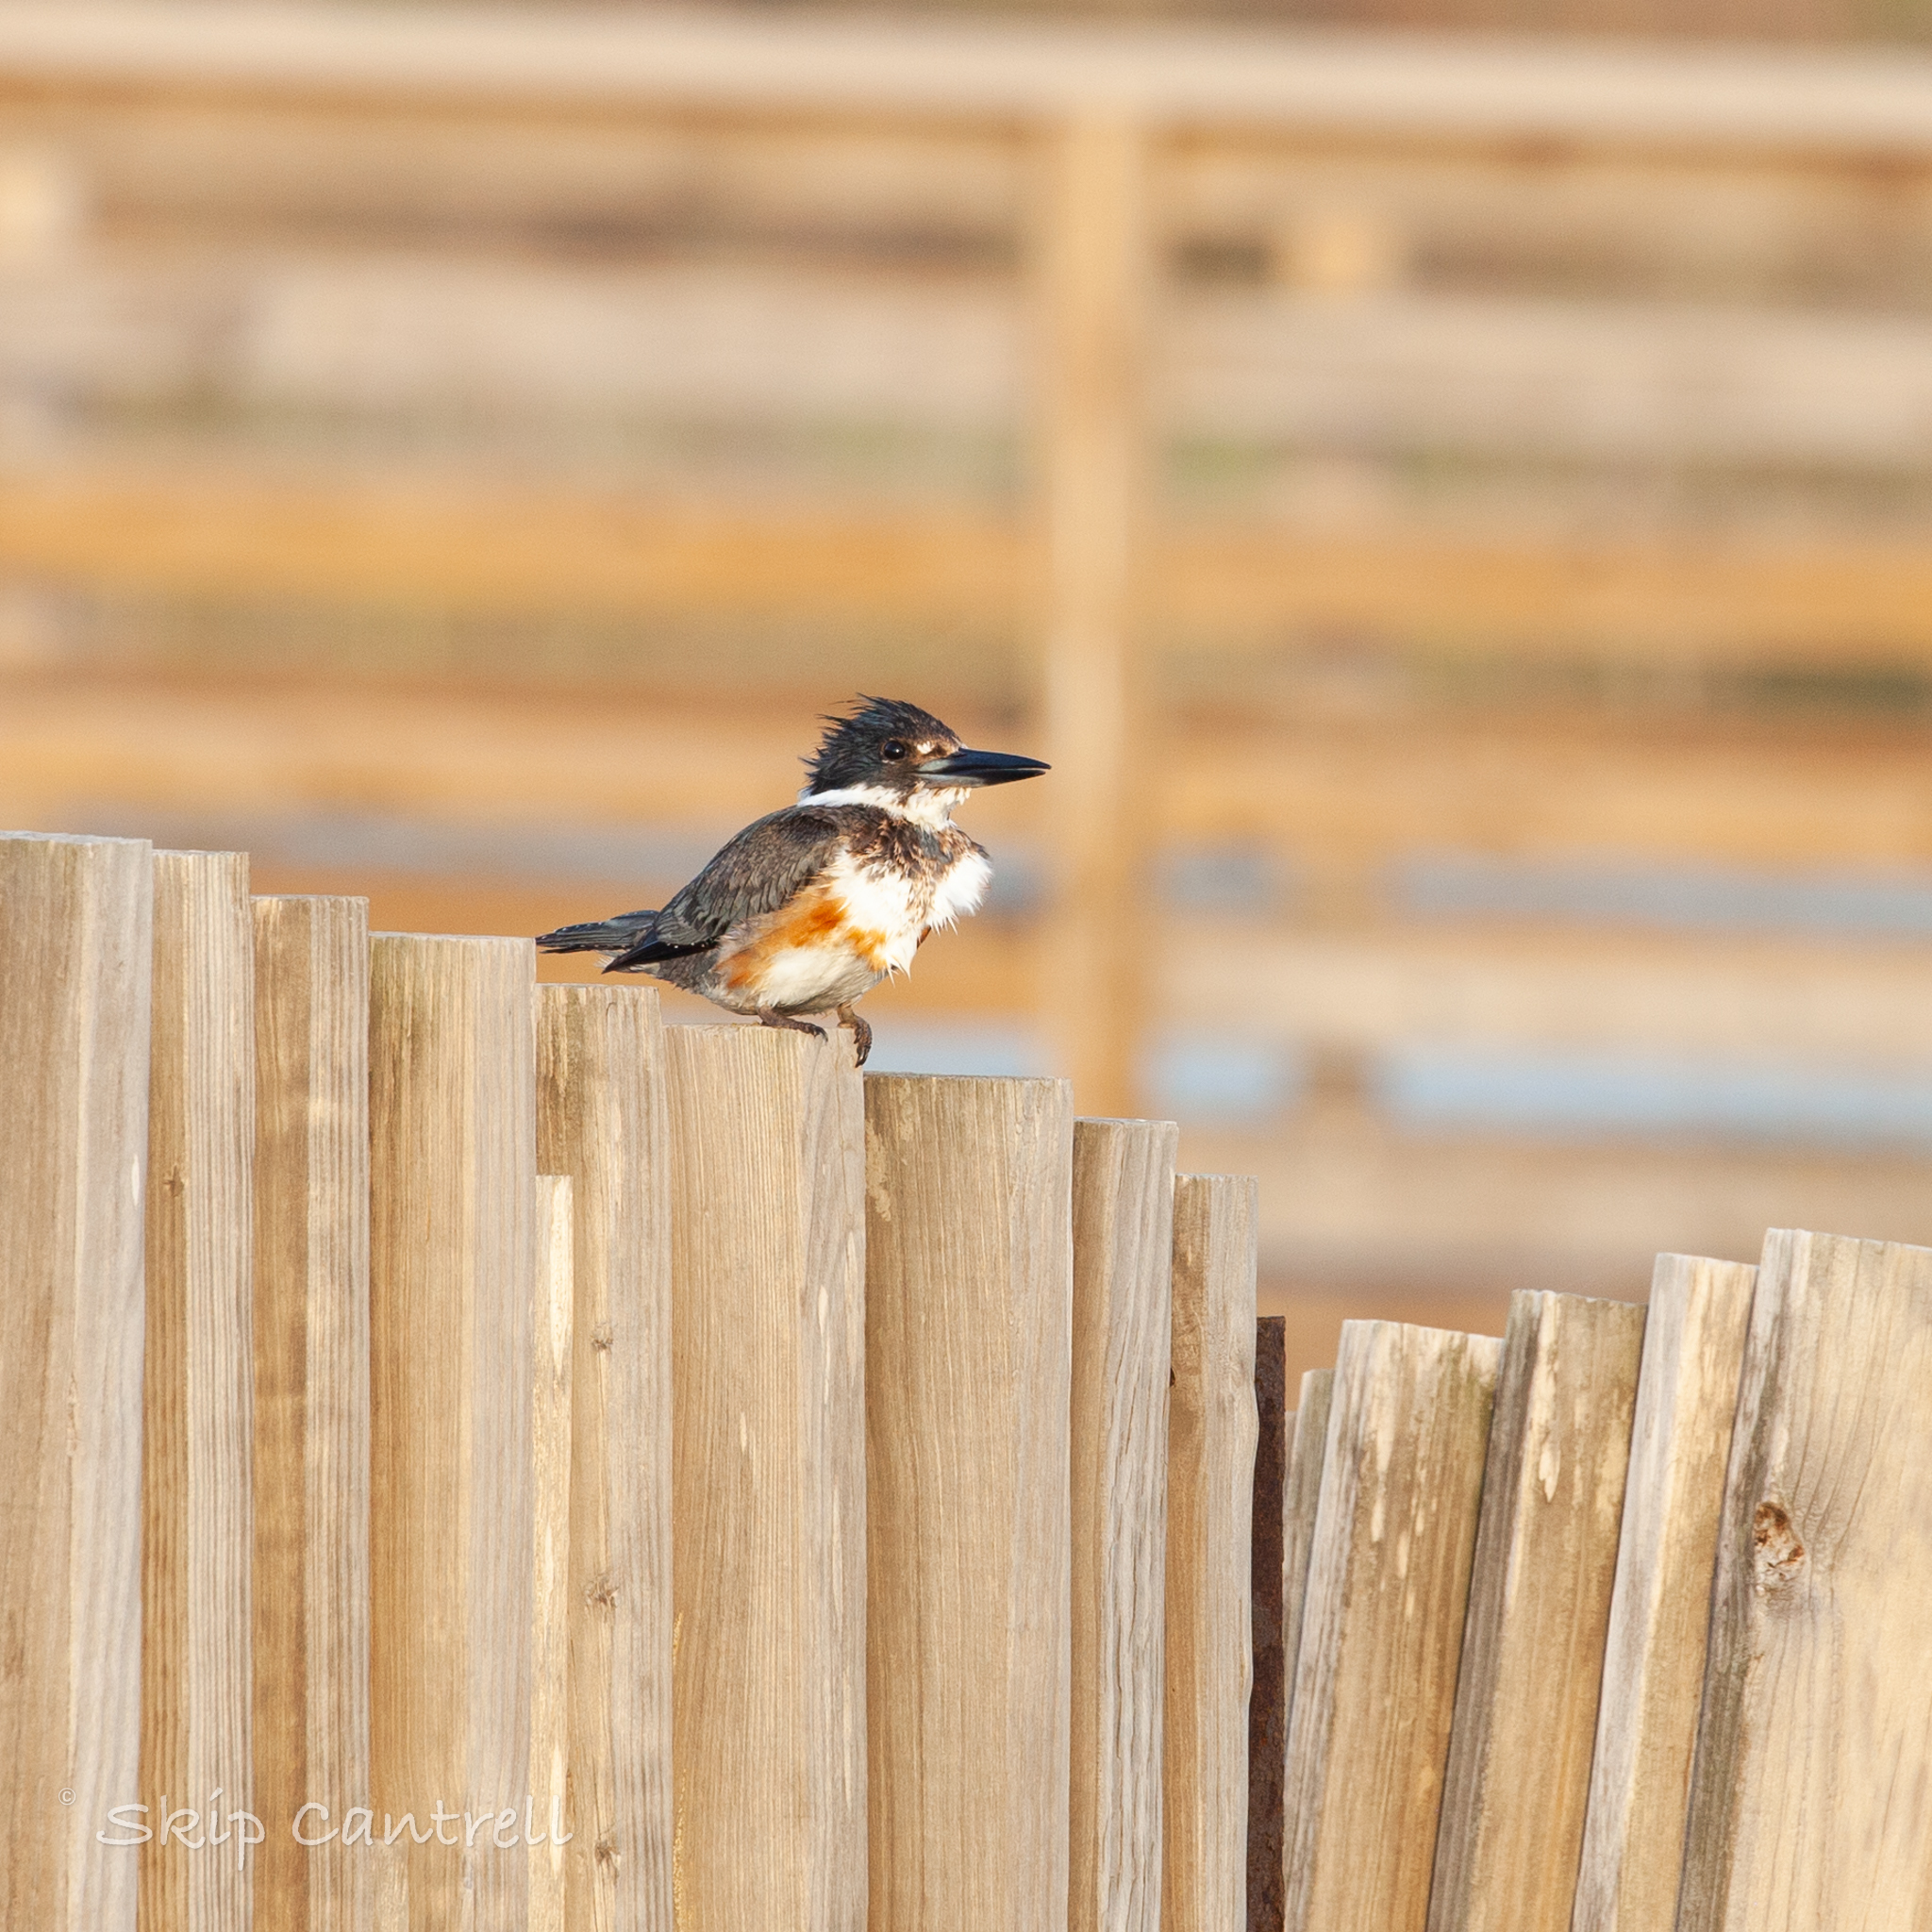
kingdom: Animalia
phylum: Chordata
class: Aves
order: Coraciiformes
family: Alcedinidae
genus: Megaceryle
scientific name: Megaceryle alcyon
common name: Belted kingfisher
